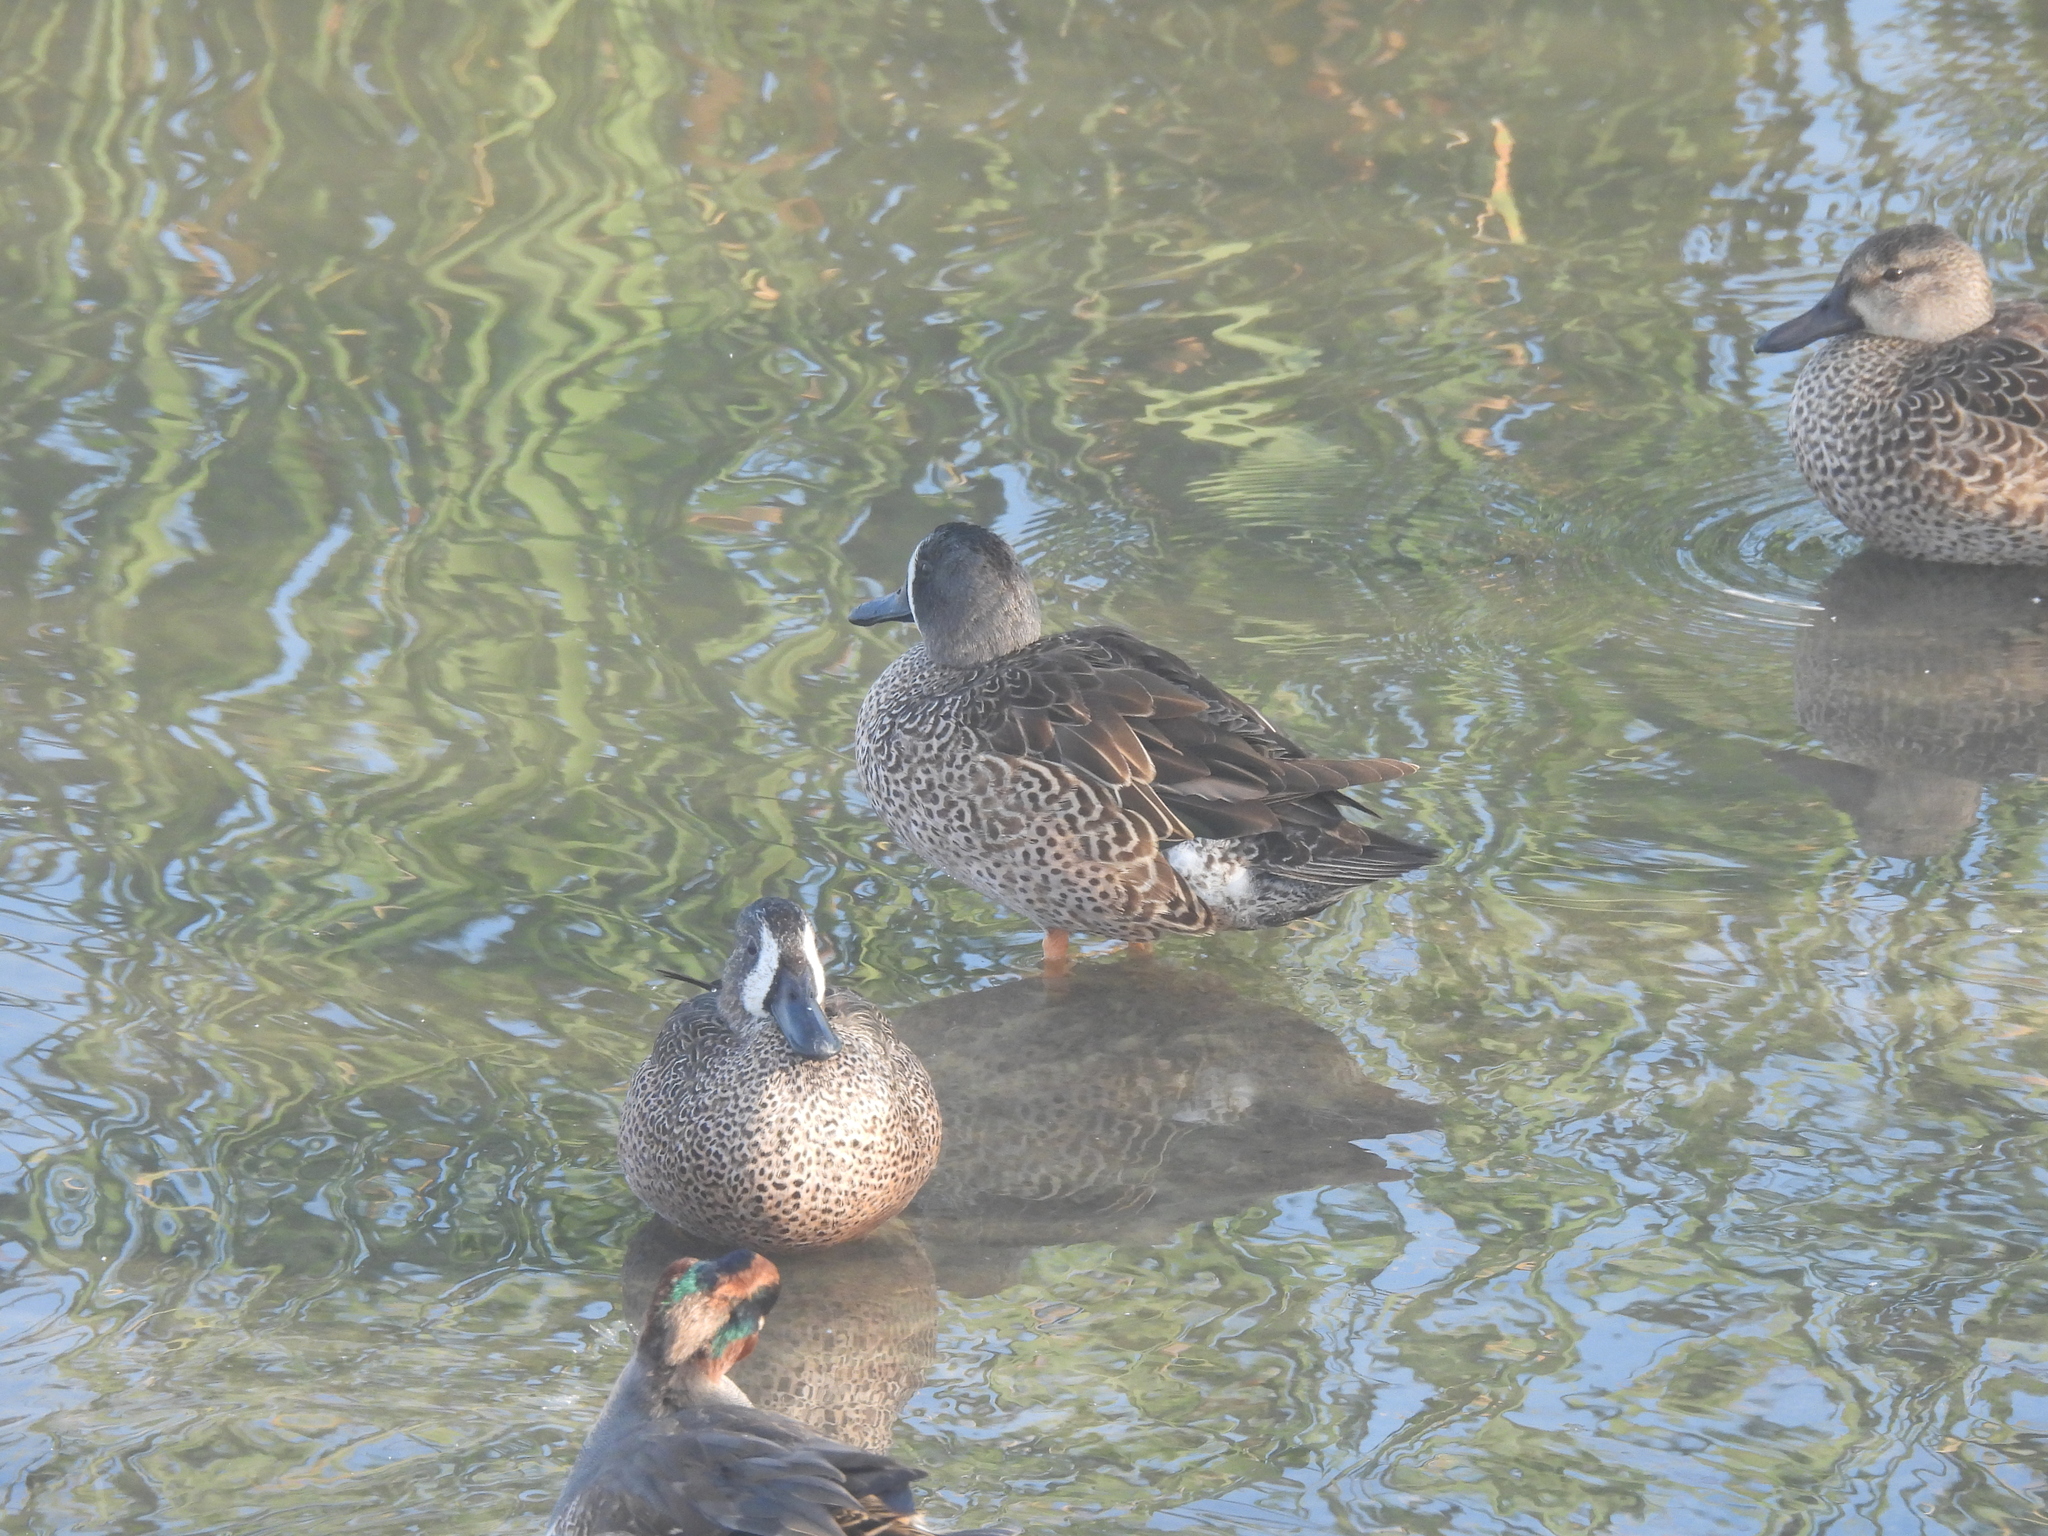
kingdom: Animalia
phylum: Chordata
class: Aves
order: Anseriformes
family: Anatidae
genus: Spatula
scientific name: Spatula discors
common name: Blue-winged teal
